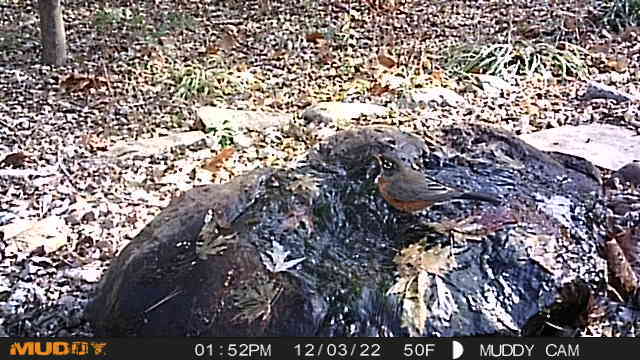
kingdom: Animalia
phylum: Chordata
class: Aves
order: Passeriformes
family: Turdidae
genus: Turdus
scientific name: Turdus migratorius
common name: American robin
